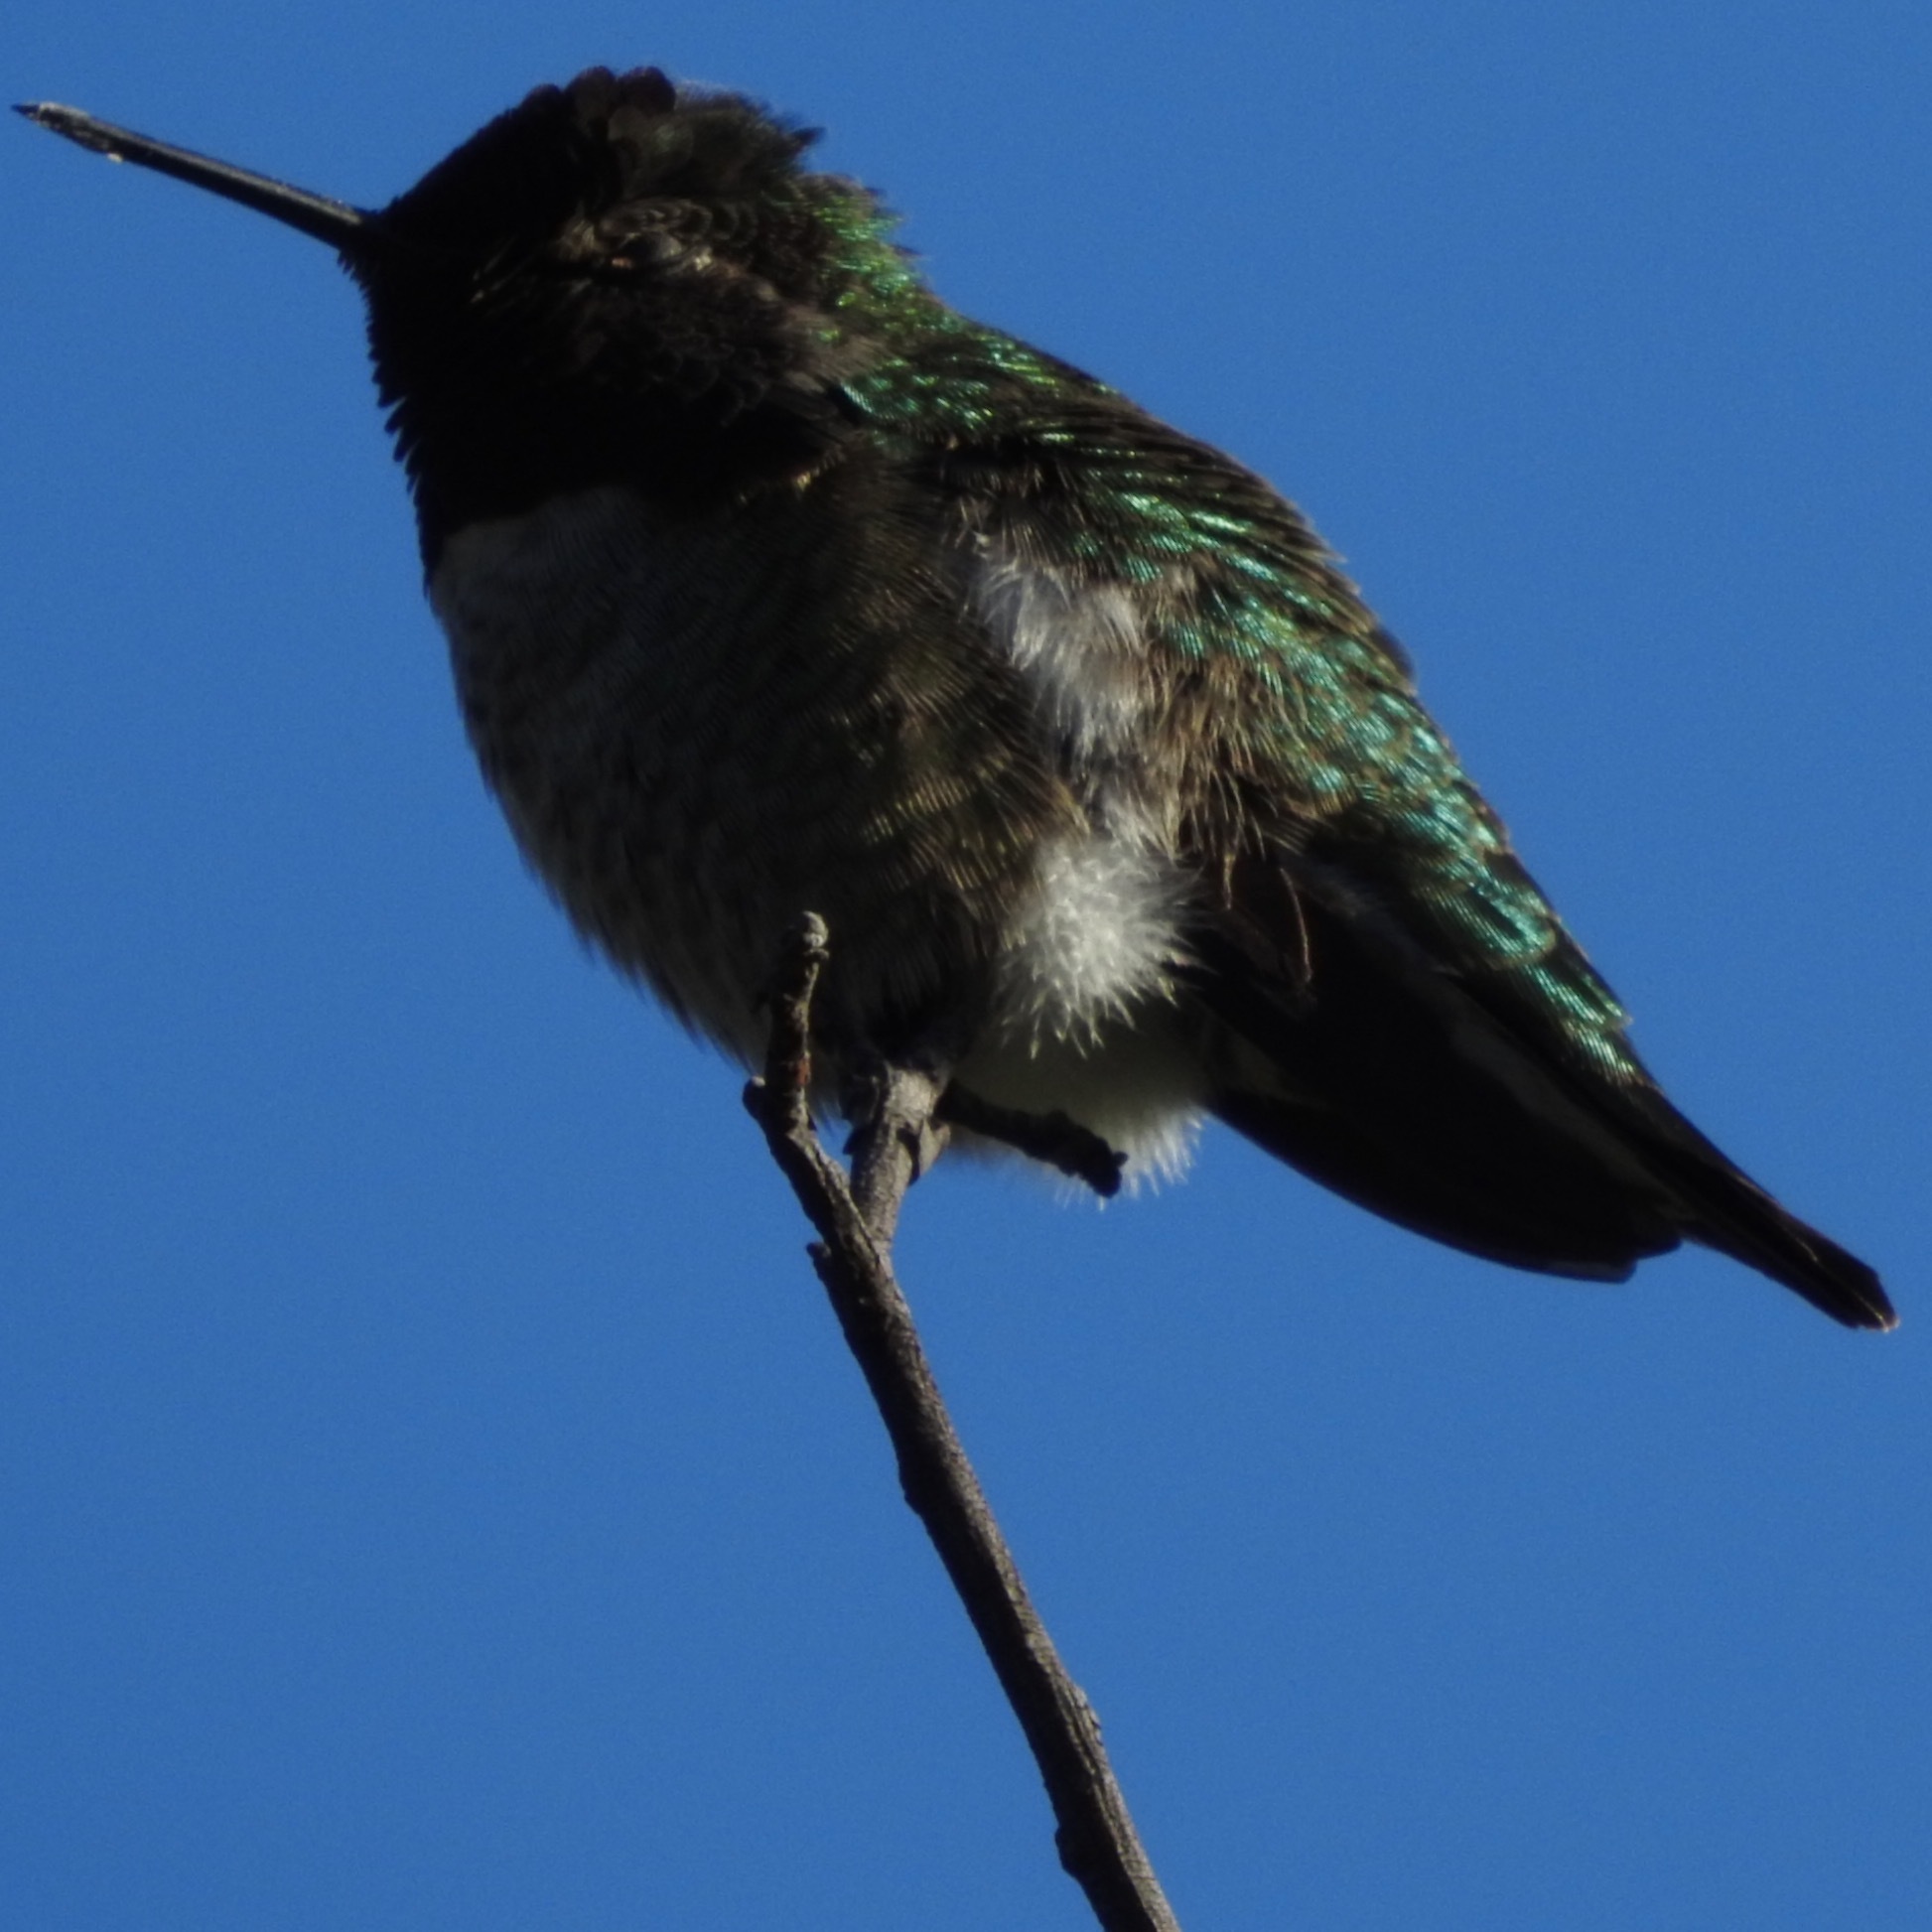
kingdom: Animalia
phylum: Chordata
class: Aves
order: Apodiformes
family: Trochilidae
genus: Calypte
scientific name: Calypte anna
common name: Anna's hummingbird
